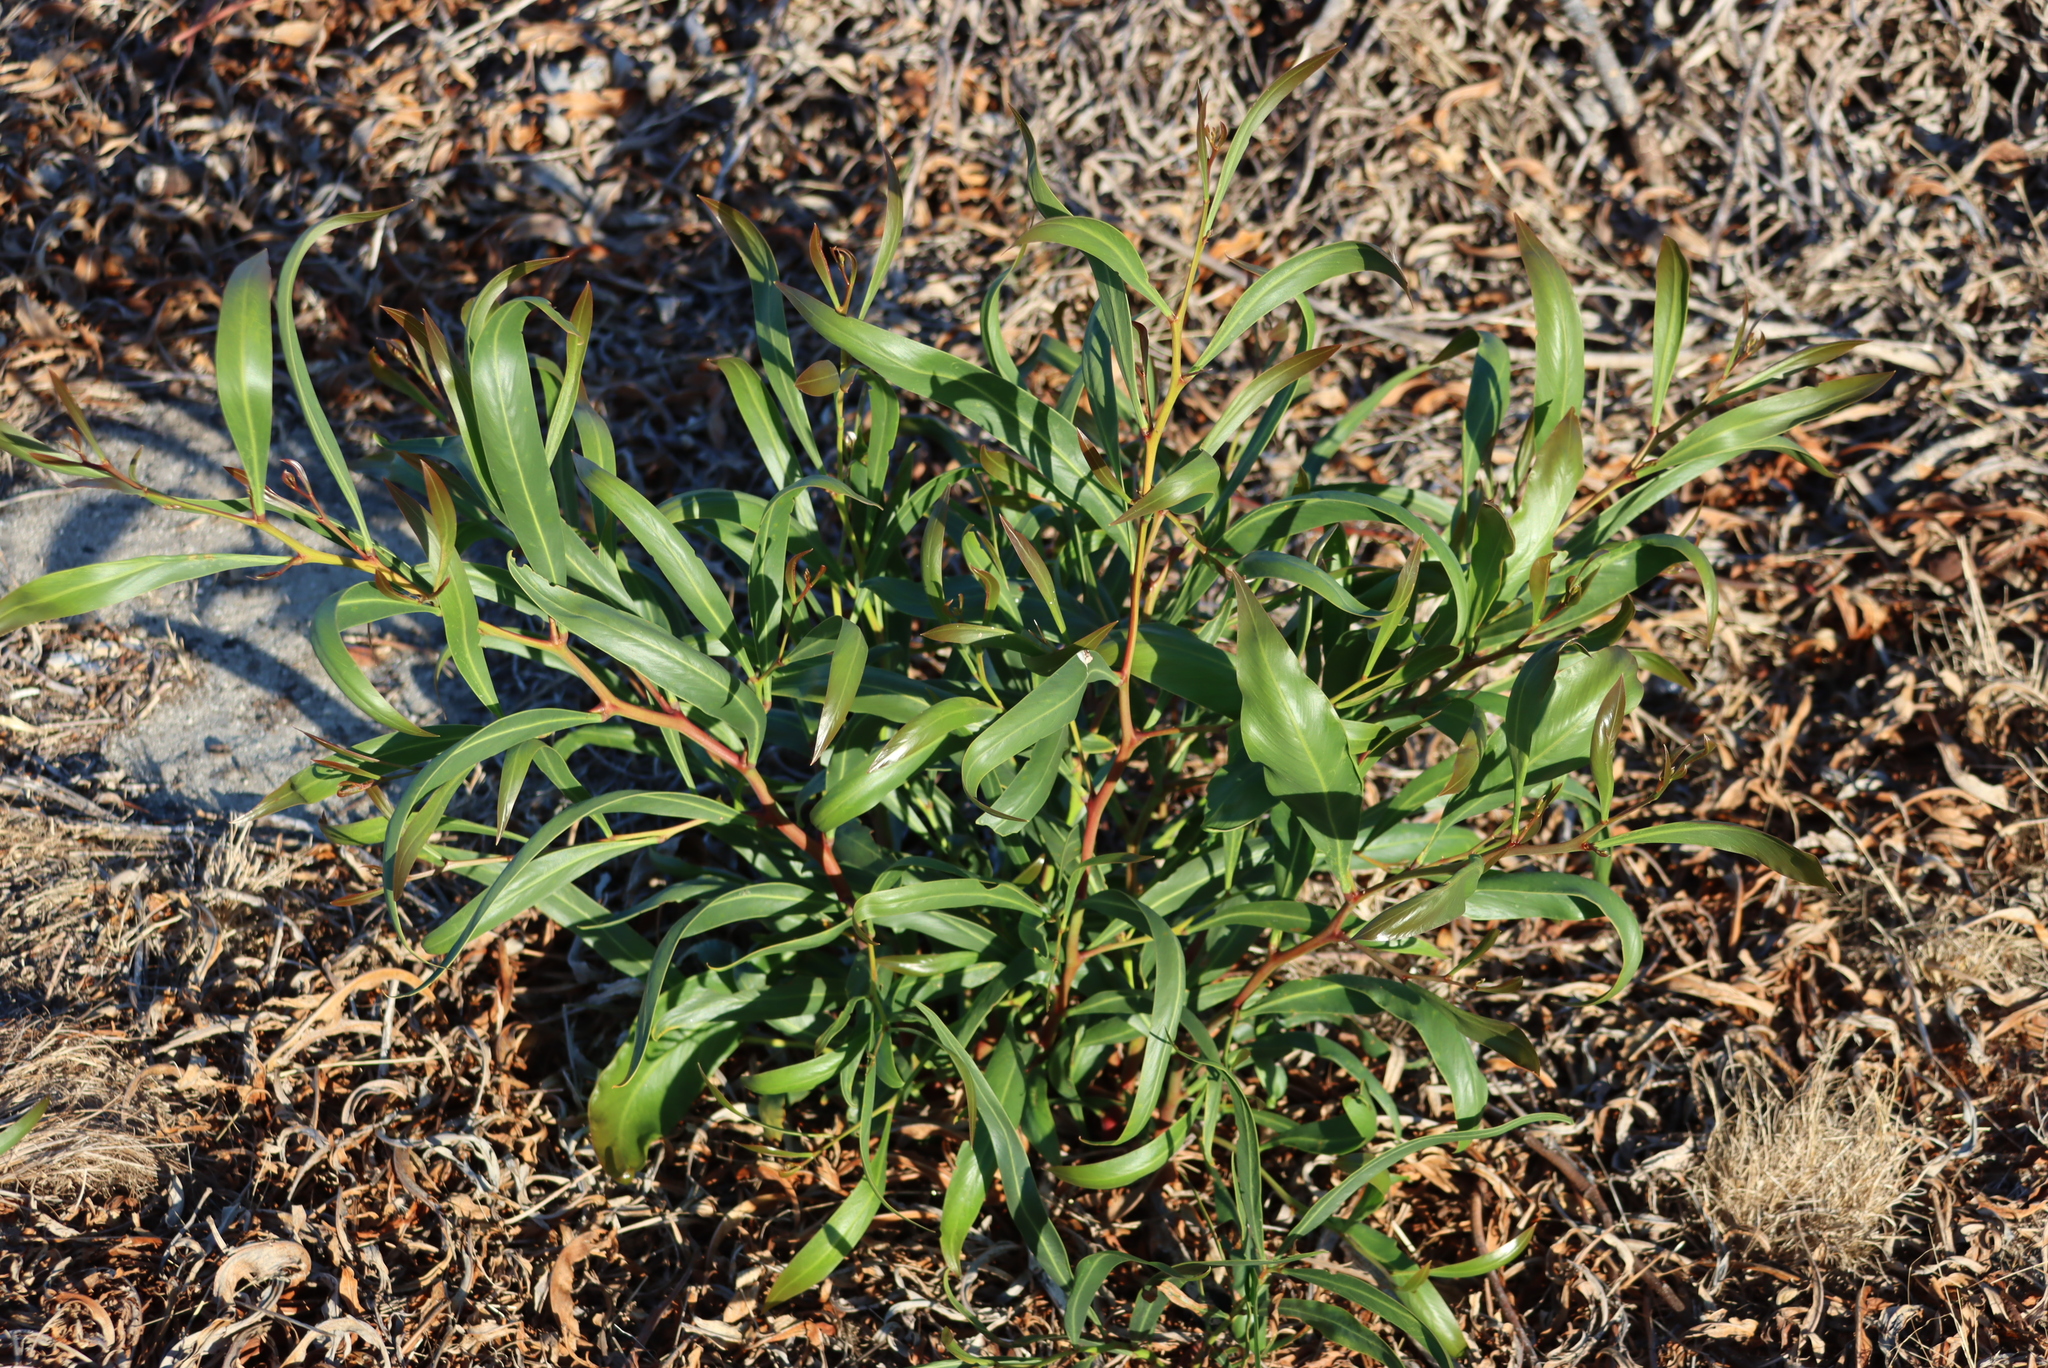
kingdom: Plantae
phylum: Tracheophyta
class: Magnoliopsida
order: Fabales
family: Fabaceae
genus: Acacia
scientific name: Acacia saligna
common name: Orange wattle
